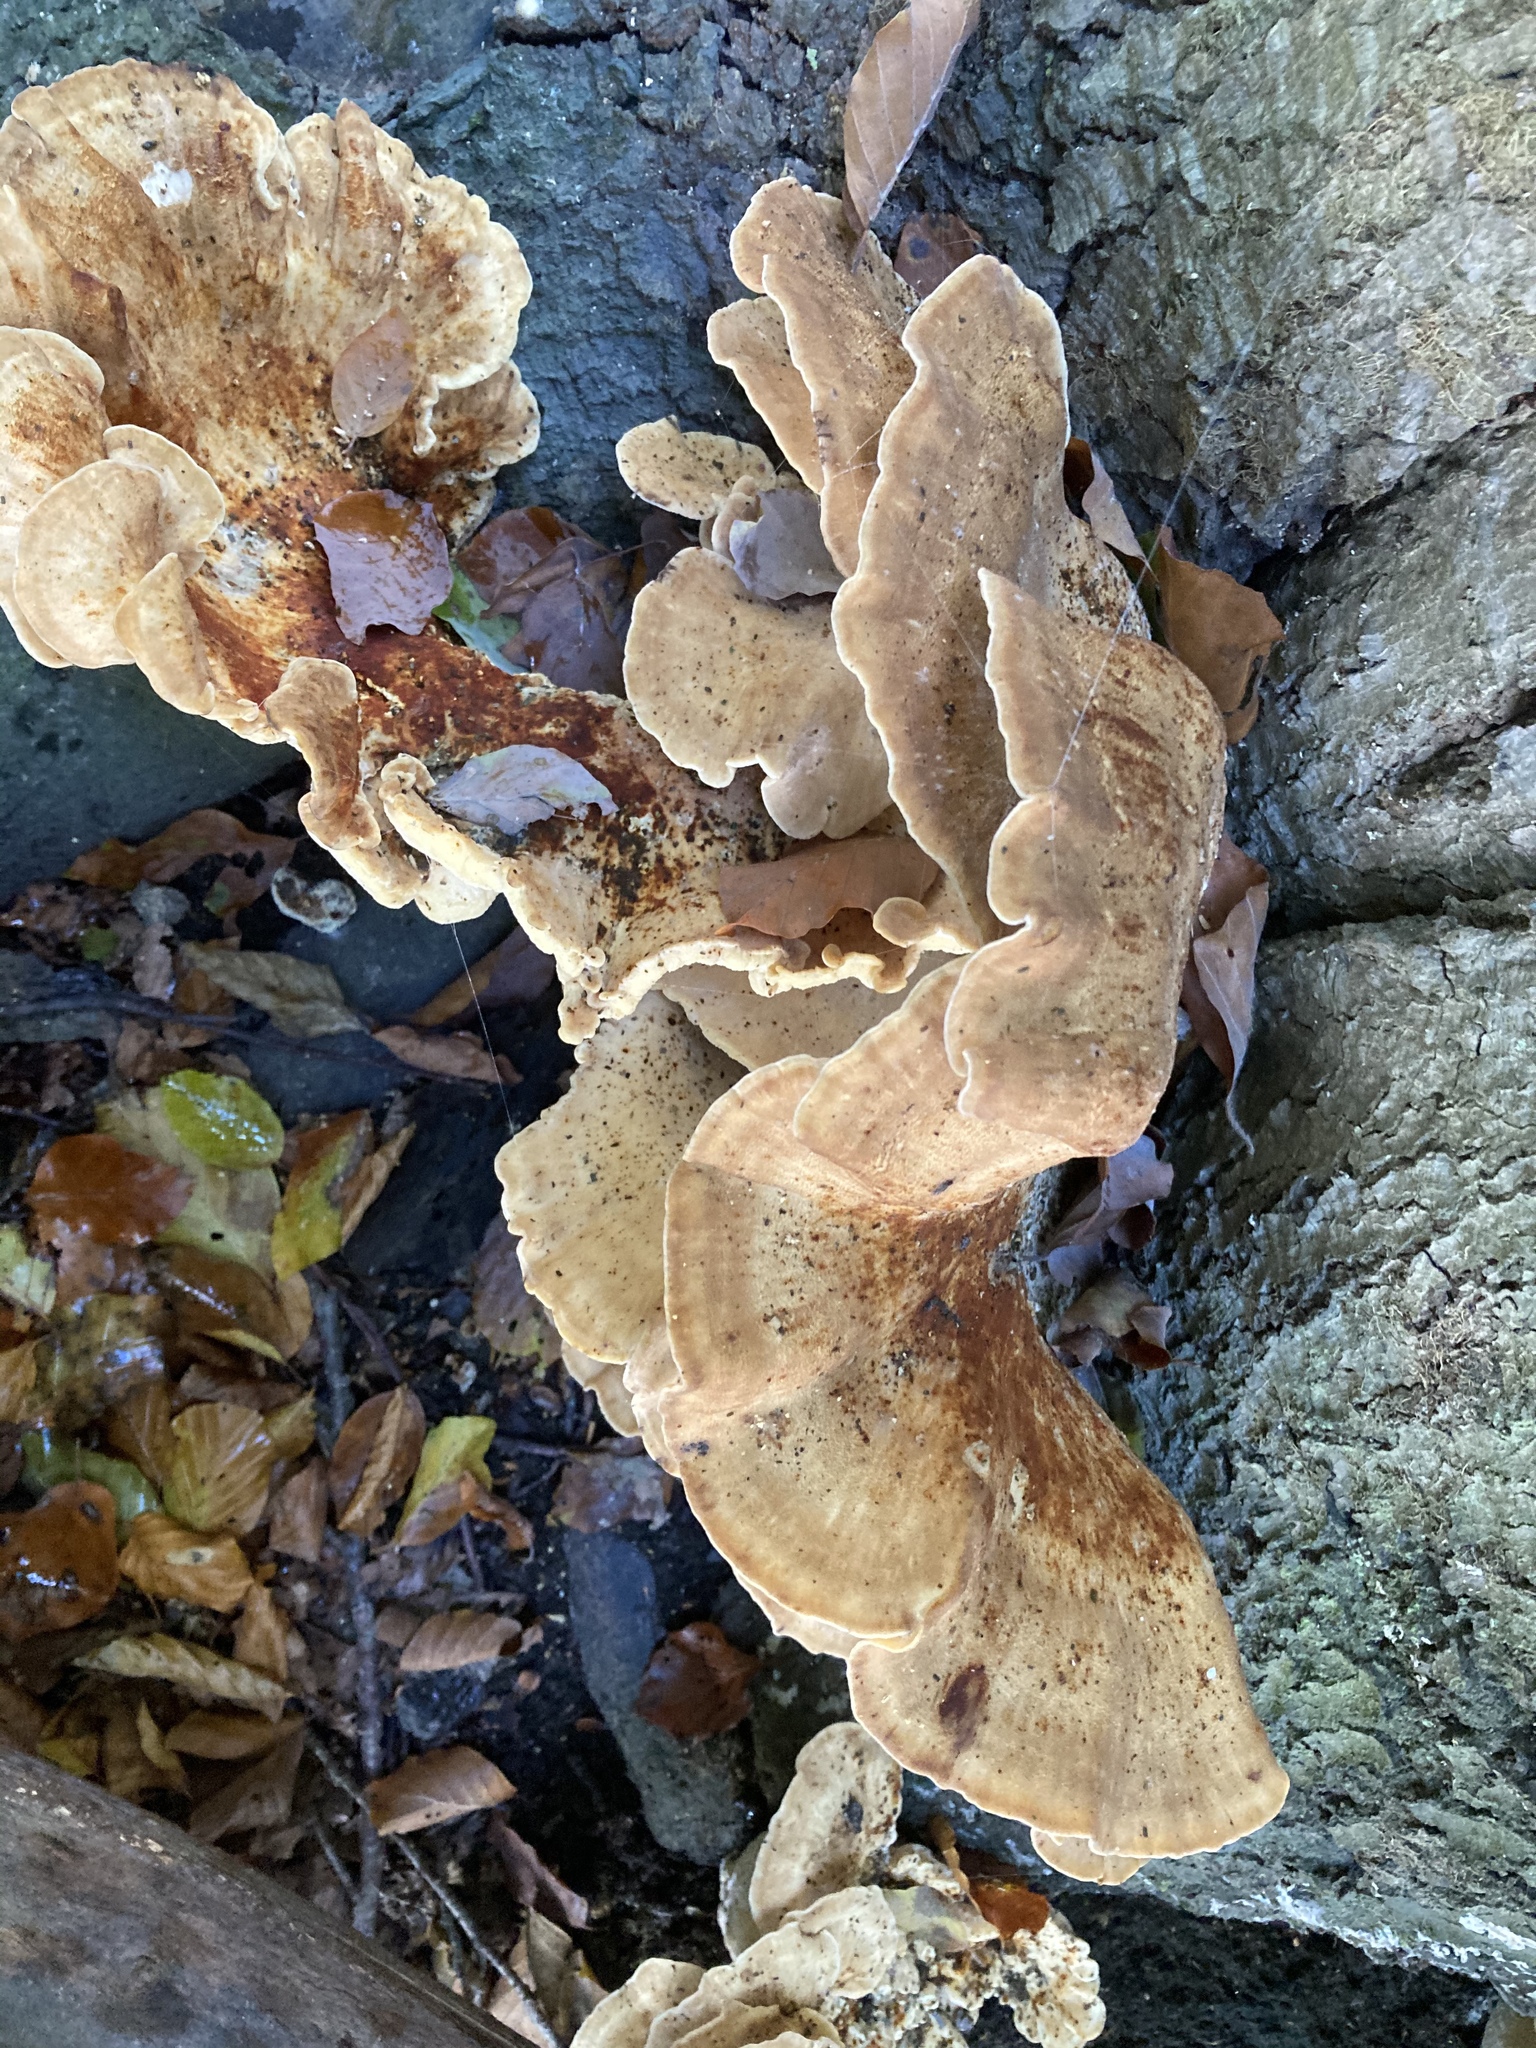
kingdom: Fungi
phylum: Basidiomycota
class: Agaricomycetes
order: Polyporales
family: Meripilaceae
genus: Meripilus
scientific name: Meripilus giganteus
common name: Giant polypore
